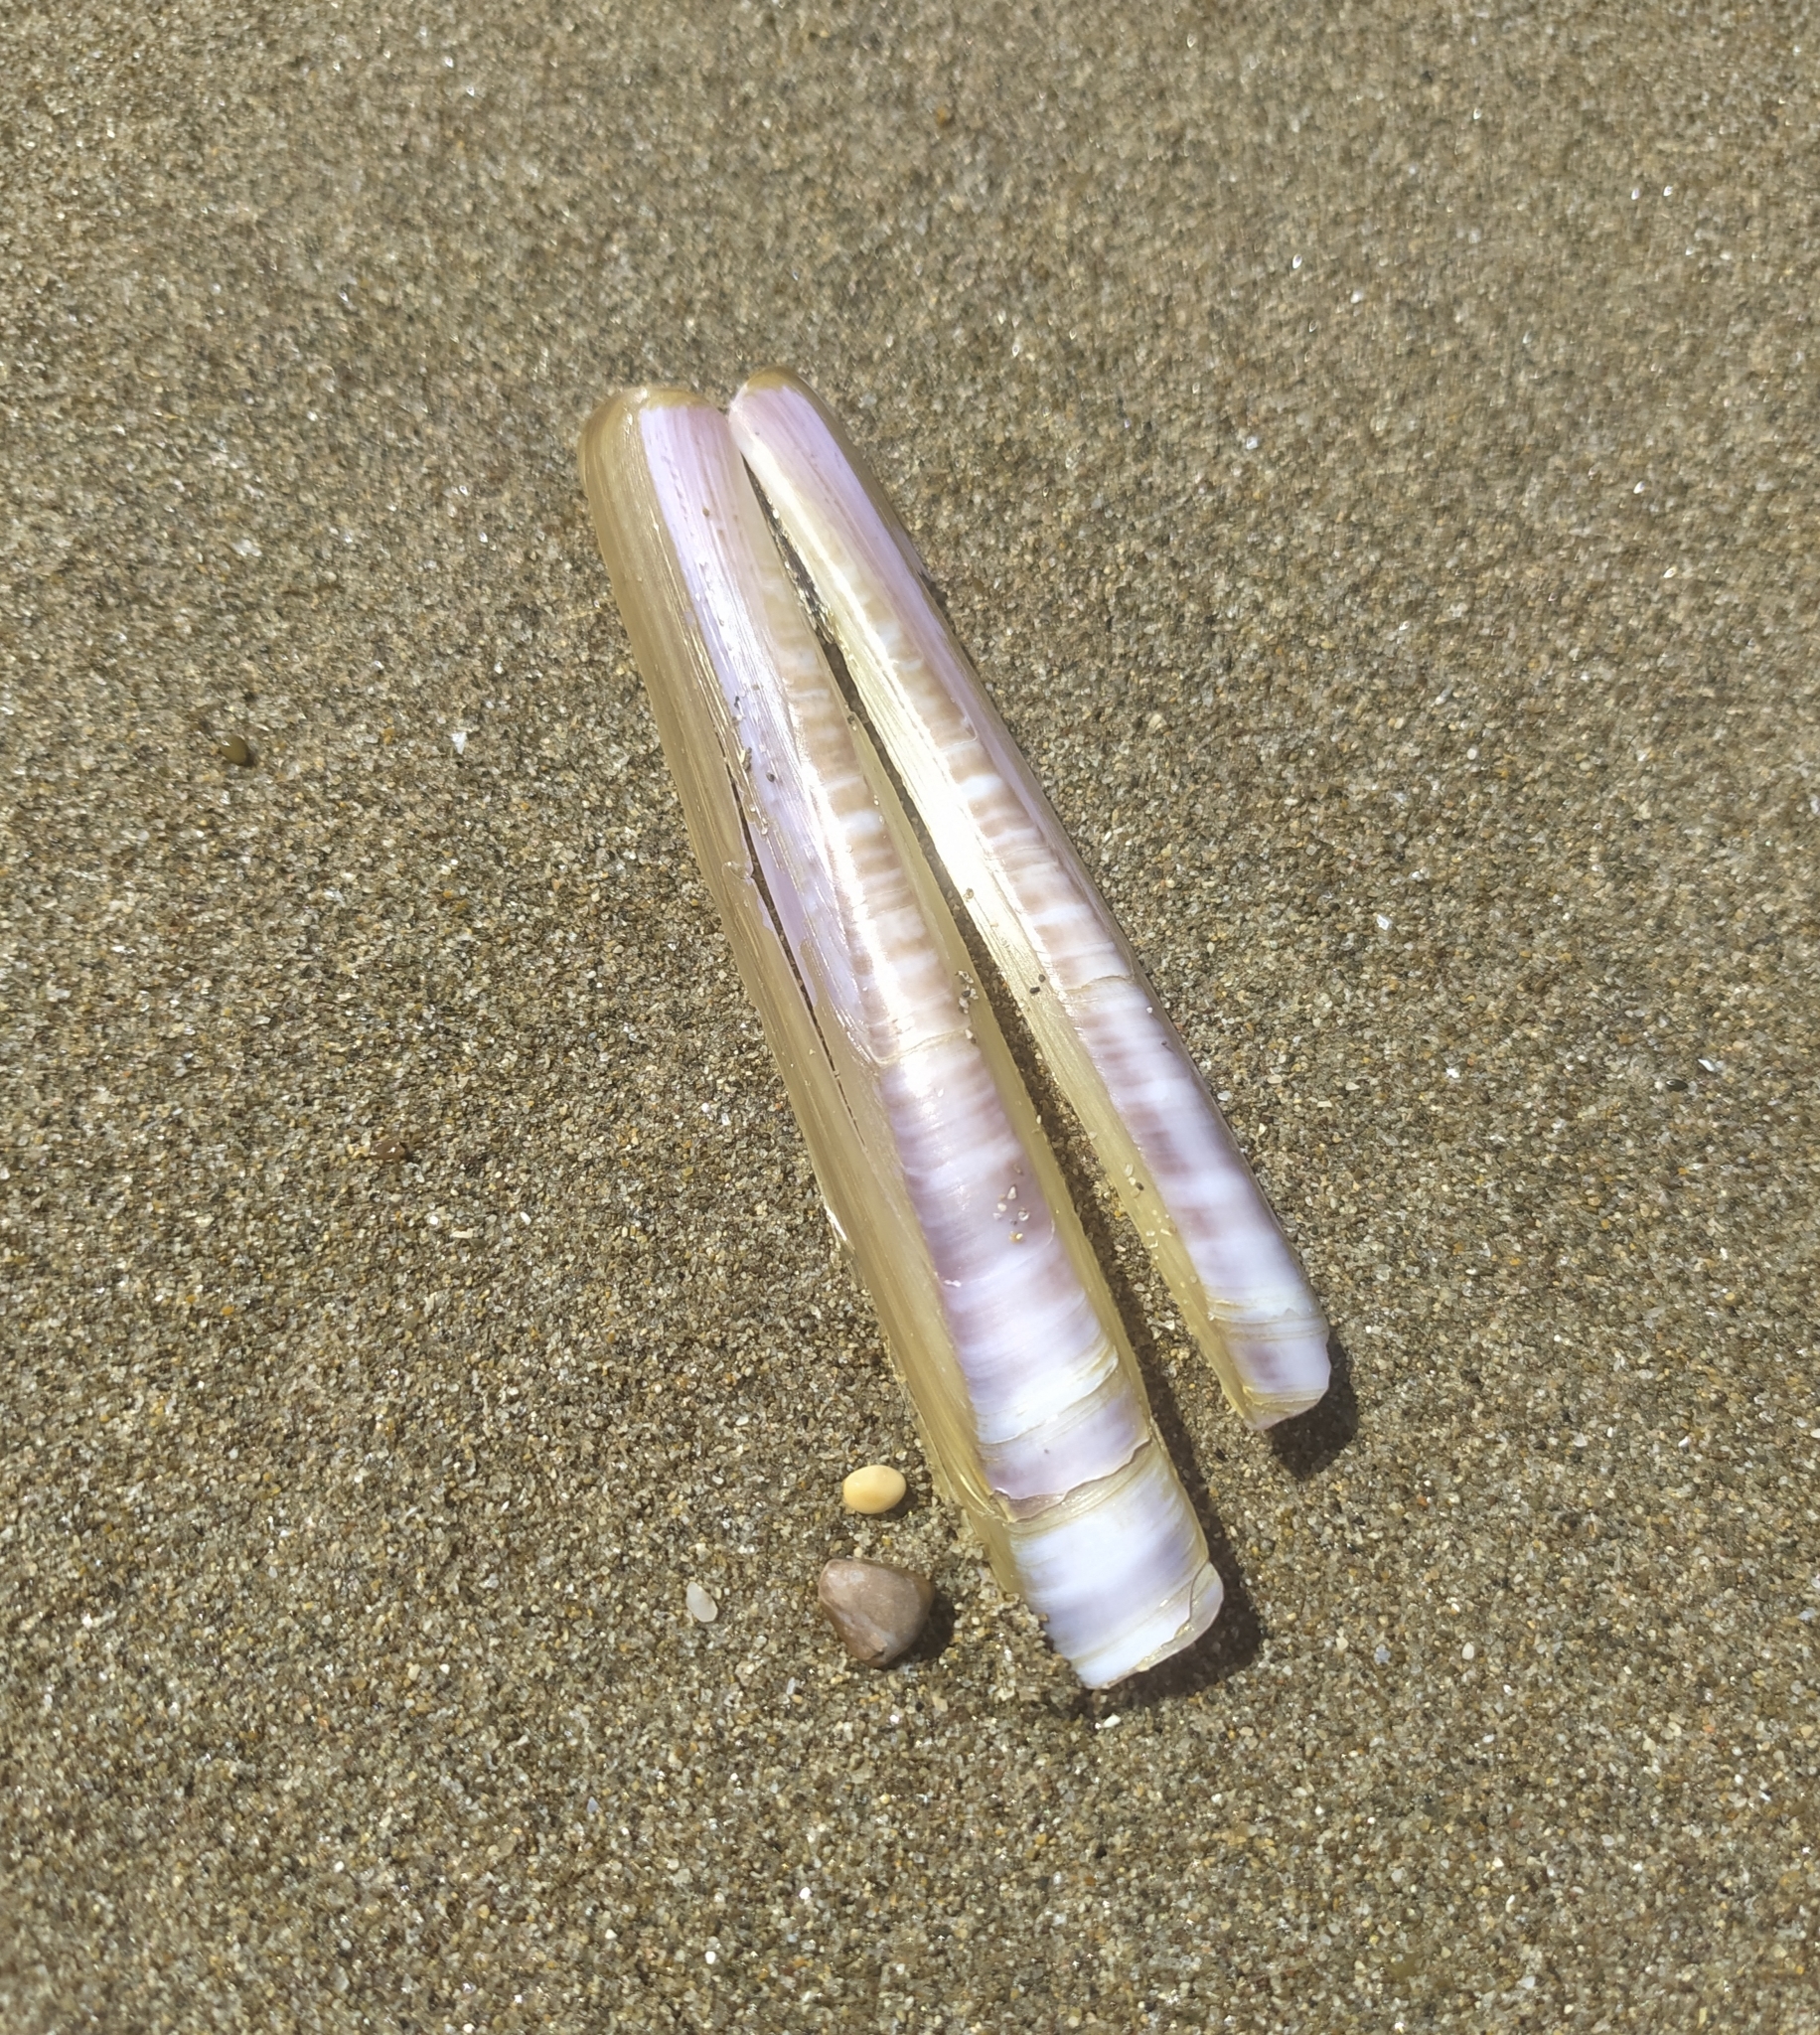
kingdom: Animalia
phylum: Mollusca
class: Bivalvia
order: Adapedonta
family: Pharidae
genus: Ensis
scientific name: Ensis minor
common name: Minor jackknife clam
